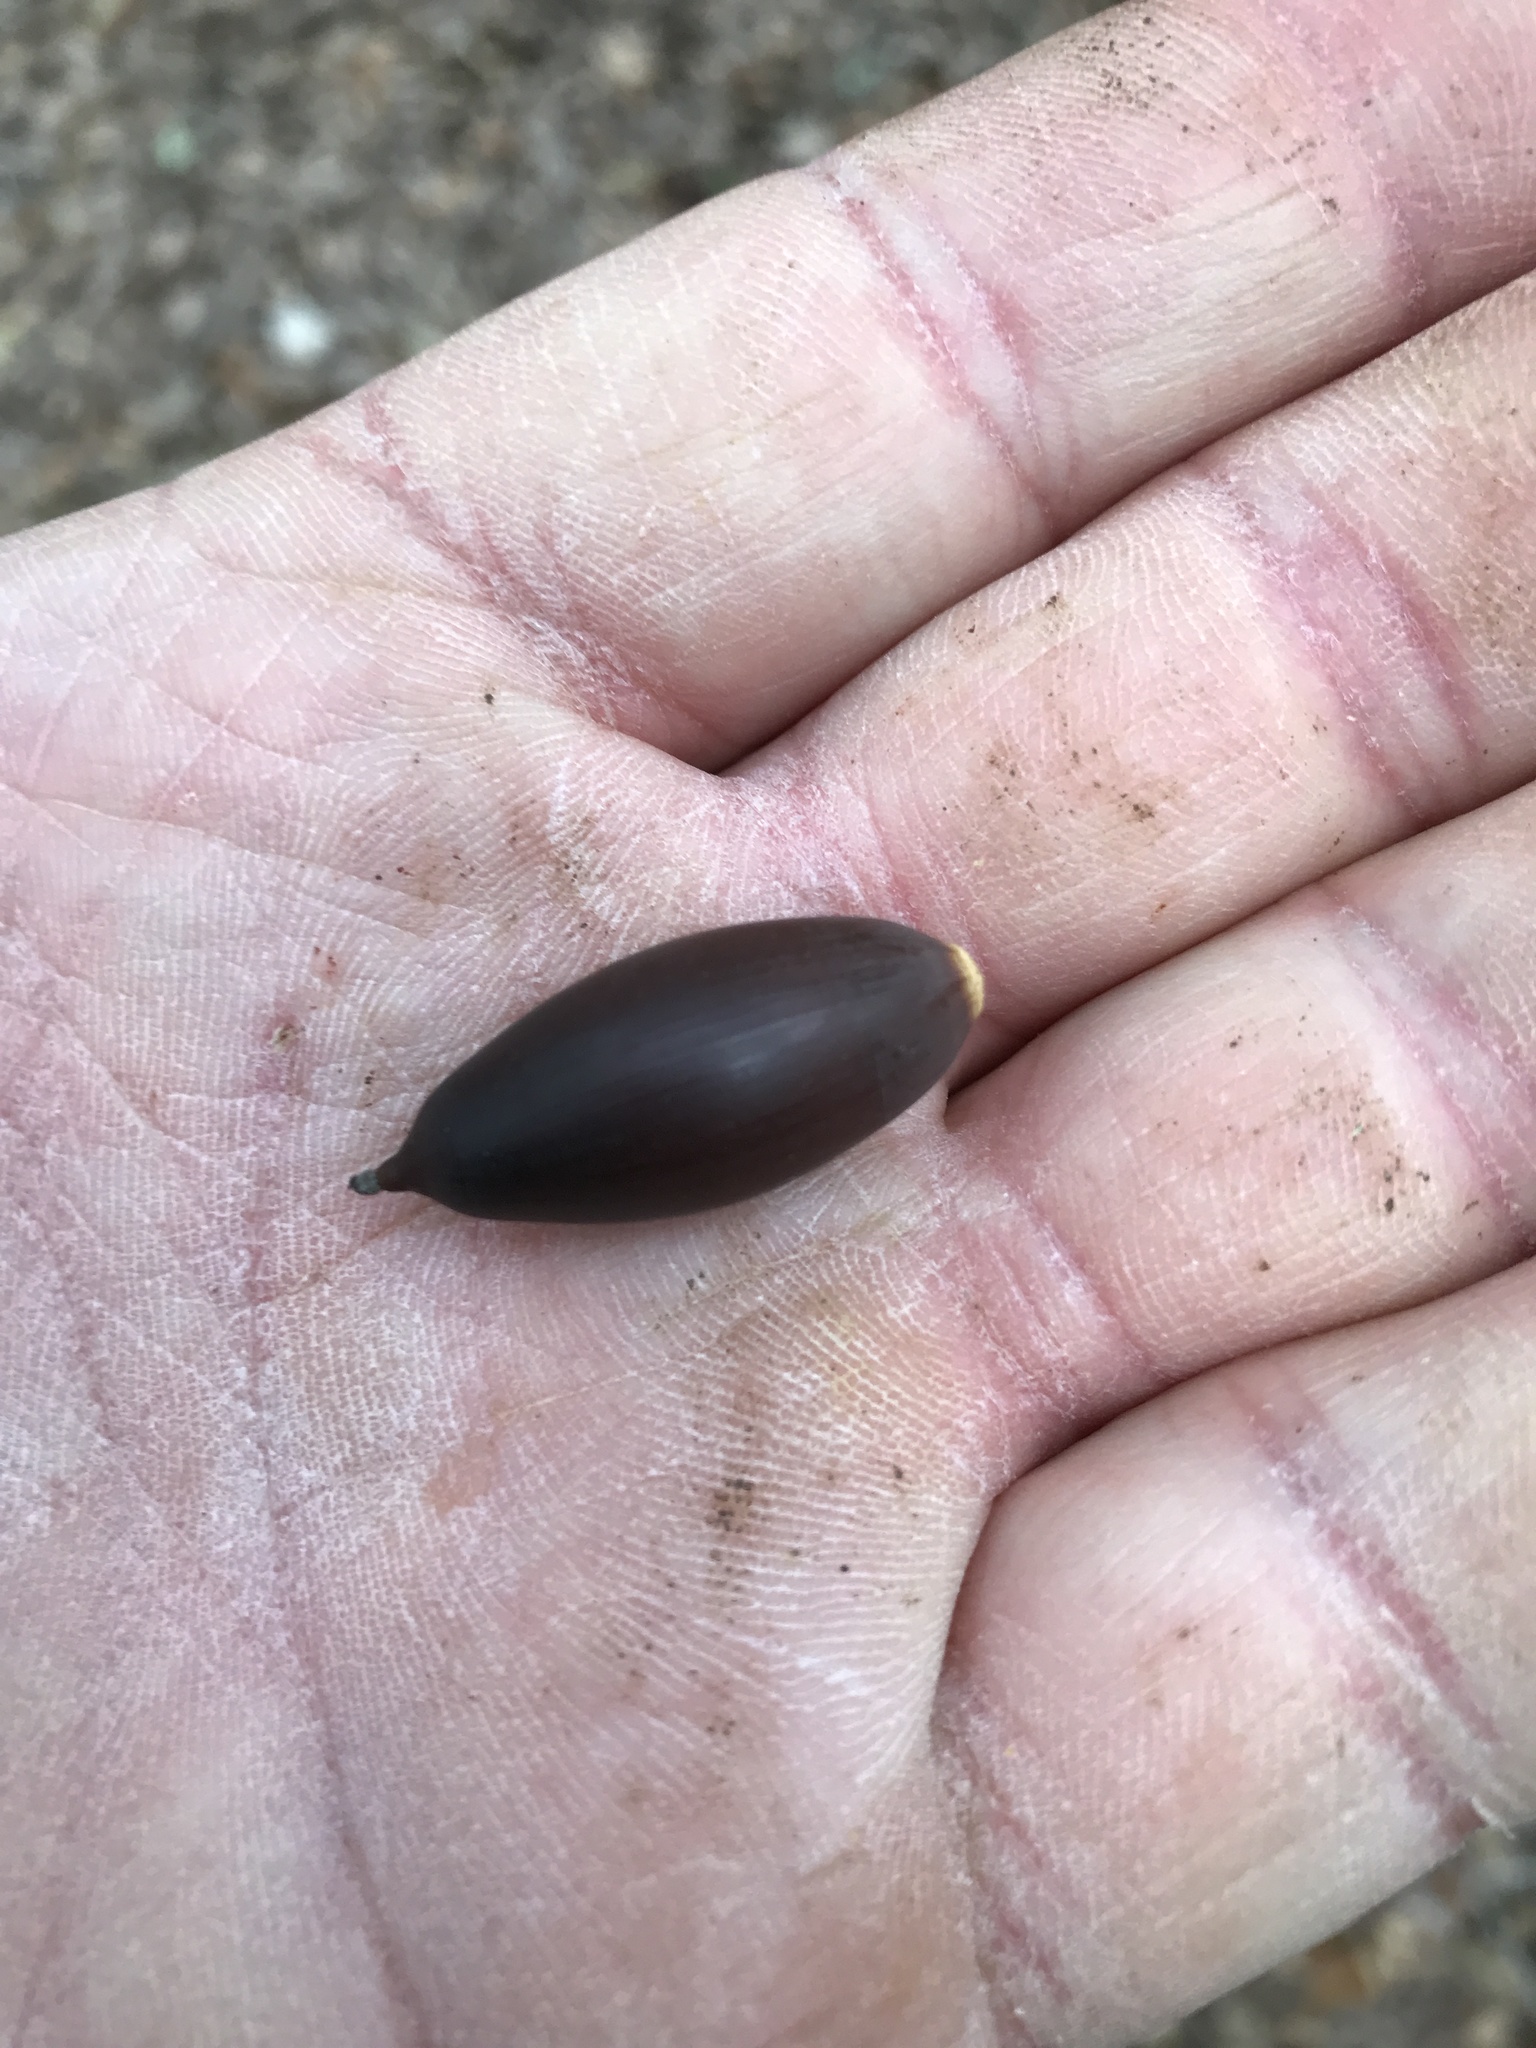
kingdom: Plantae
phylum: Tracheophyta
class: Magnoliopsida
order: Fagales
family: Fagaceae
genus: Quercus
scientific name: Quercus fusiformis
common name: Texas live oak
